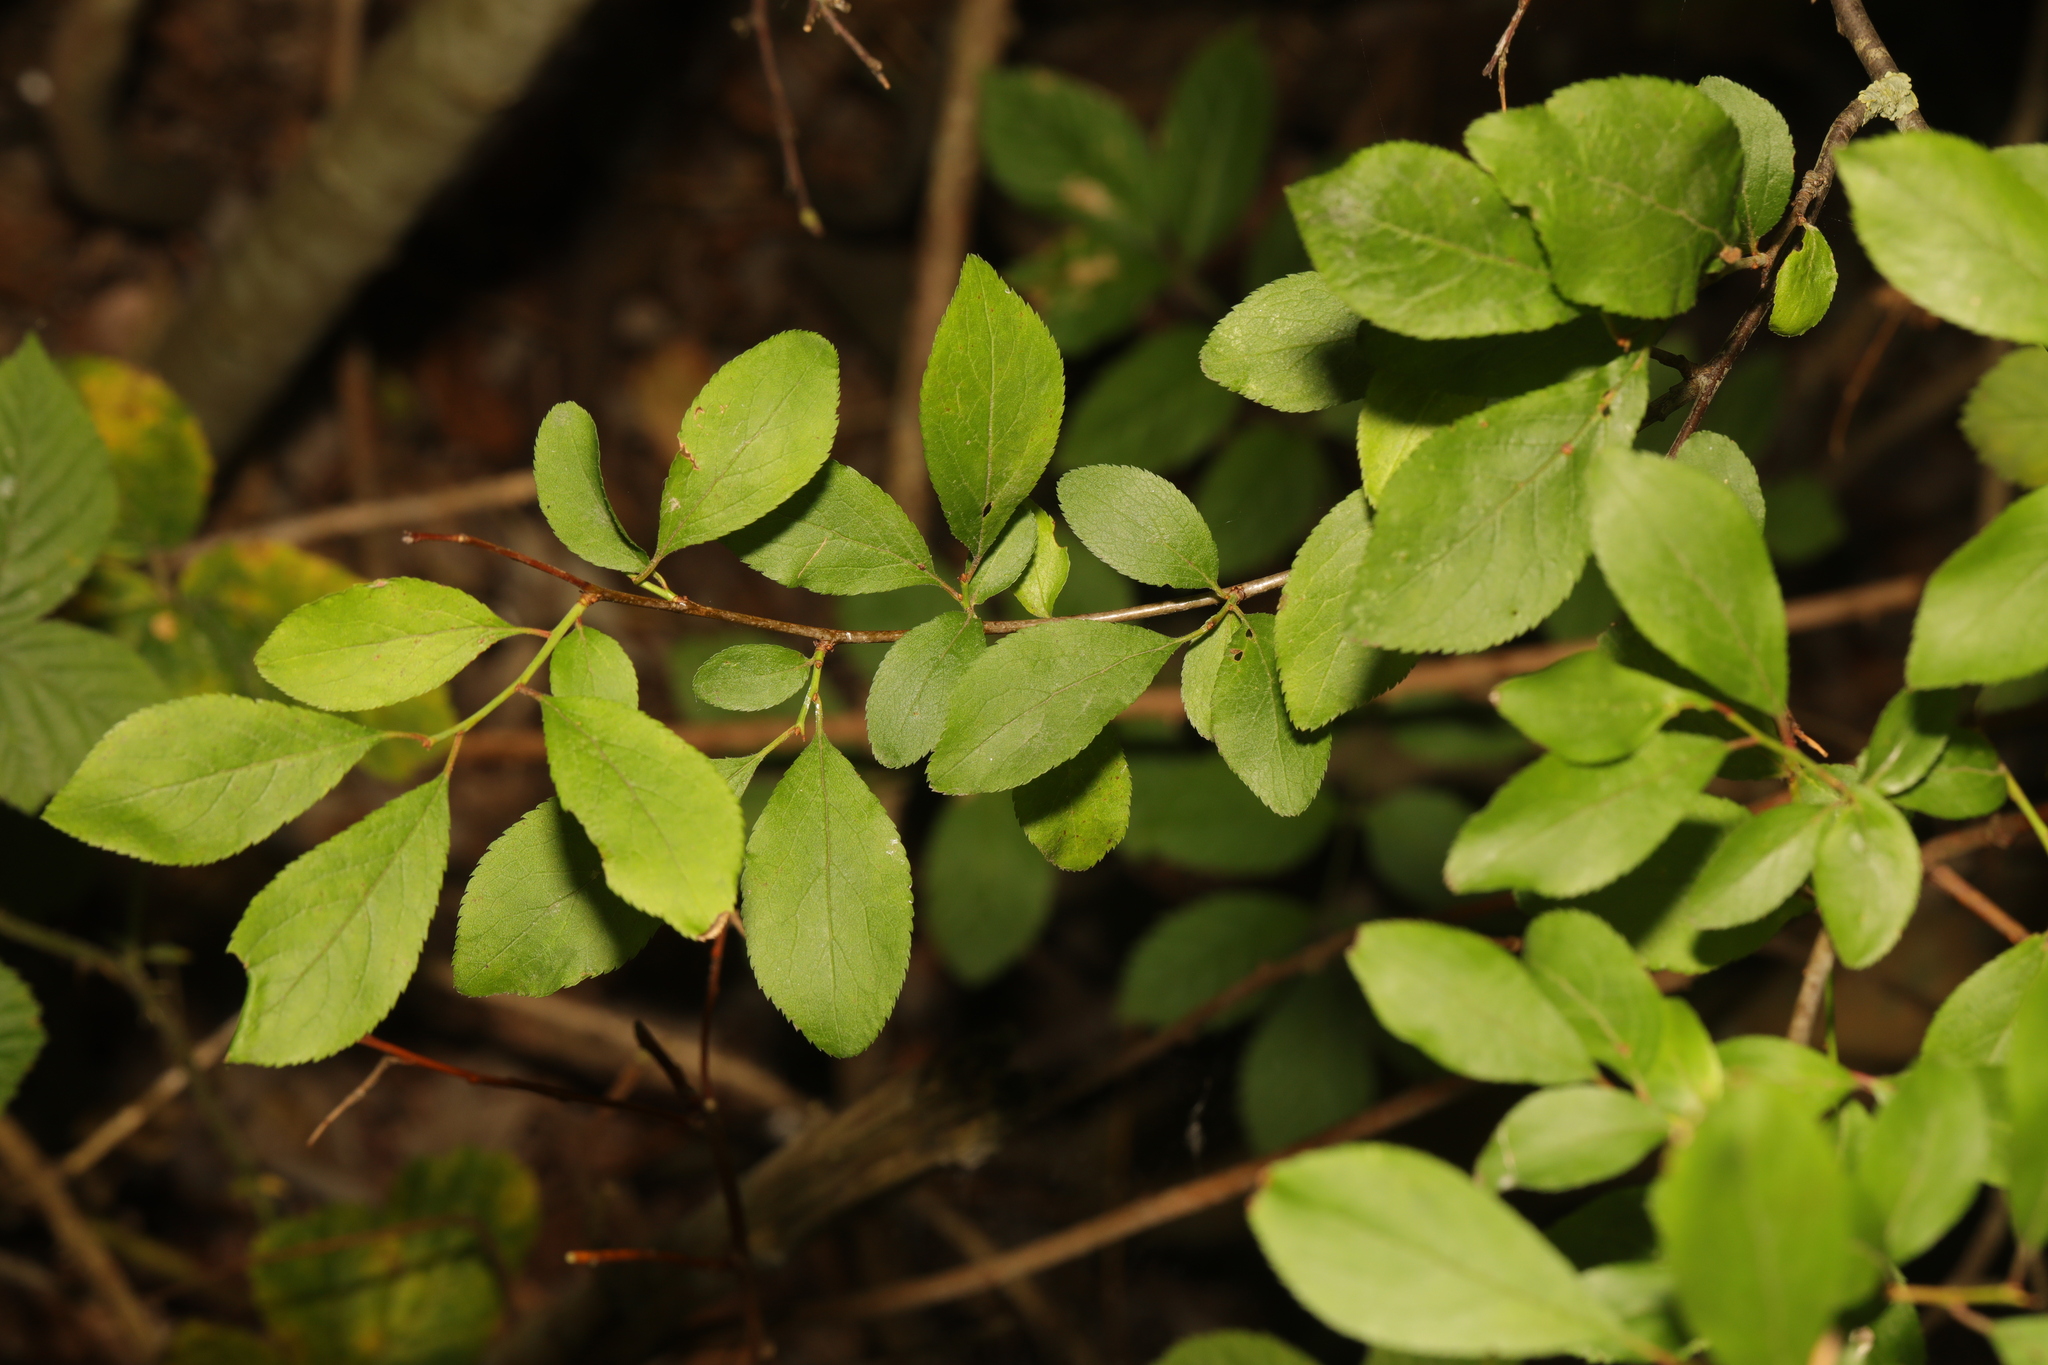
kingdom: Plantae
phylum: Tracheophyta
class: Magnoliopsida
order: Rosales
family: Rosaceae
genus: Prunus
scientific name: Prunus spinosa
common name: Blackthorn
